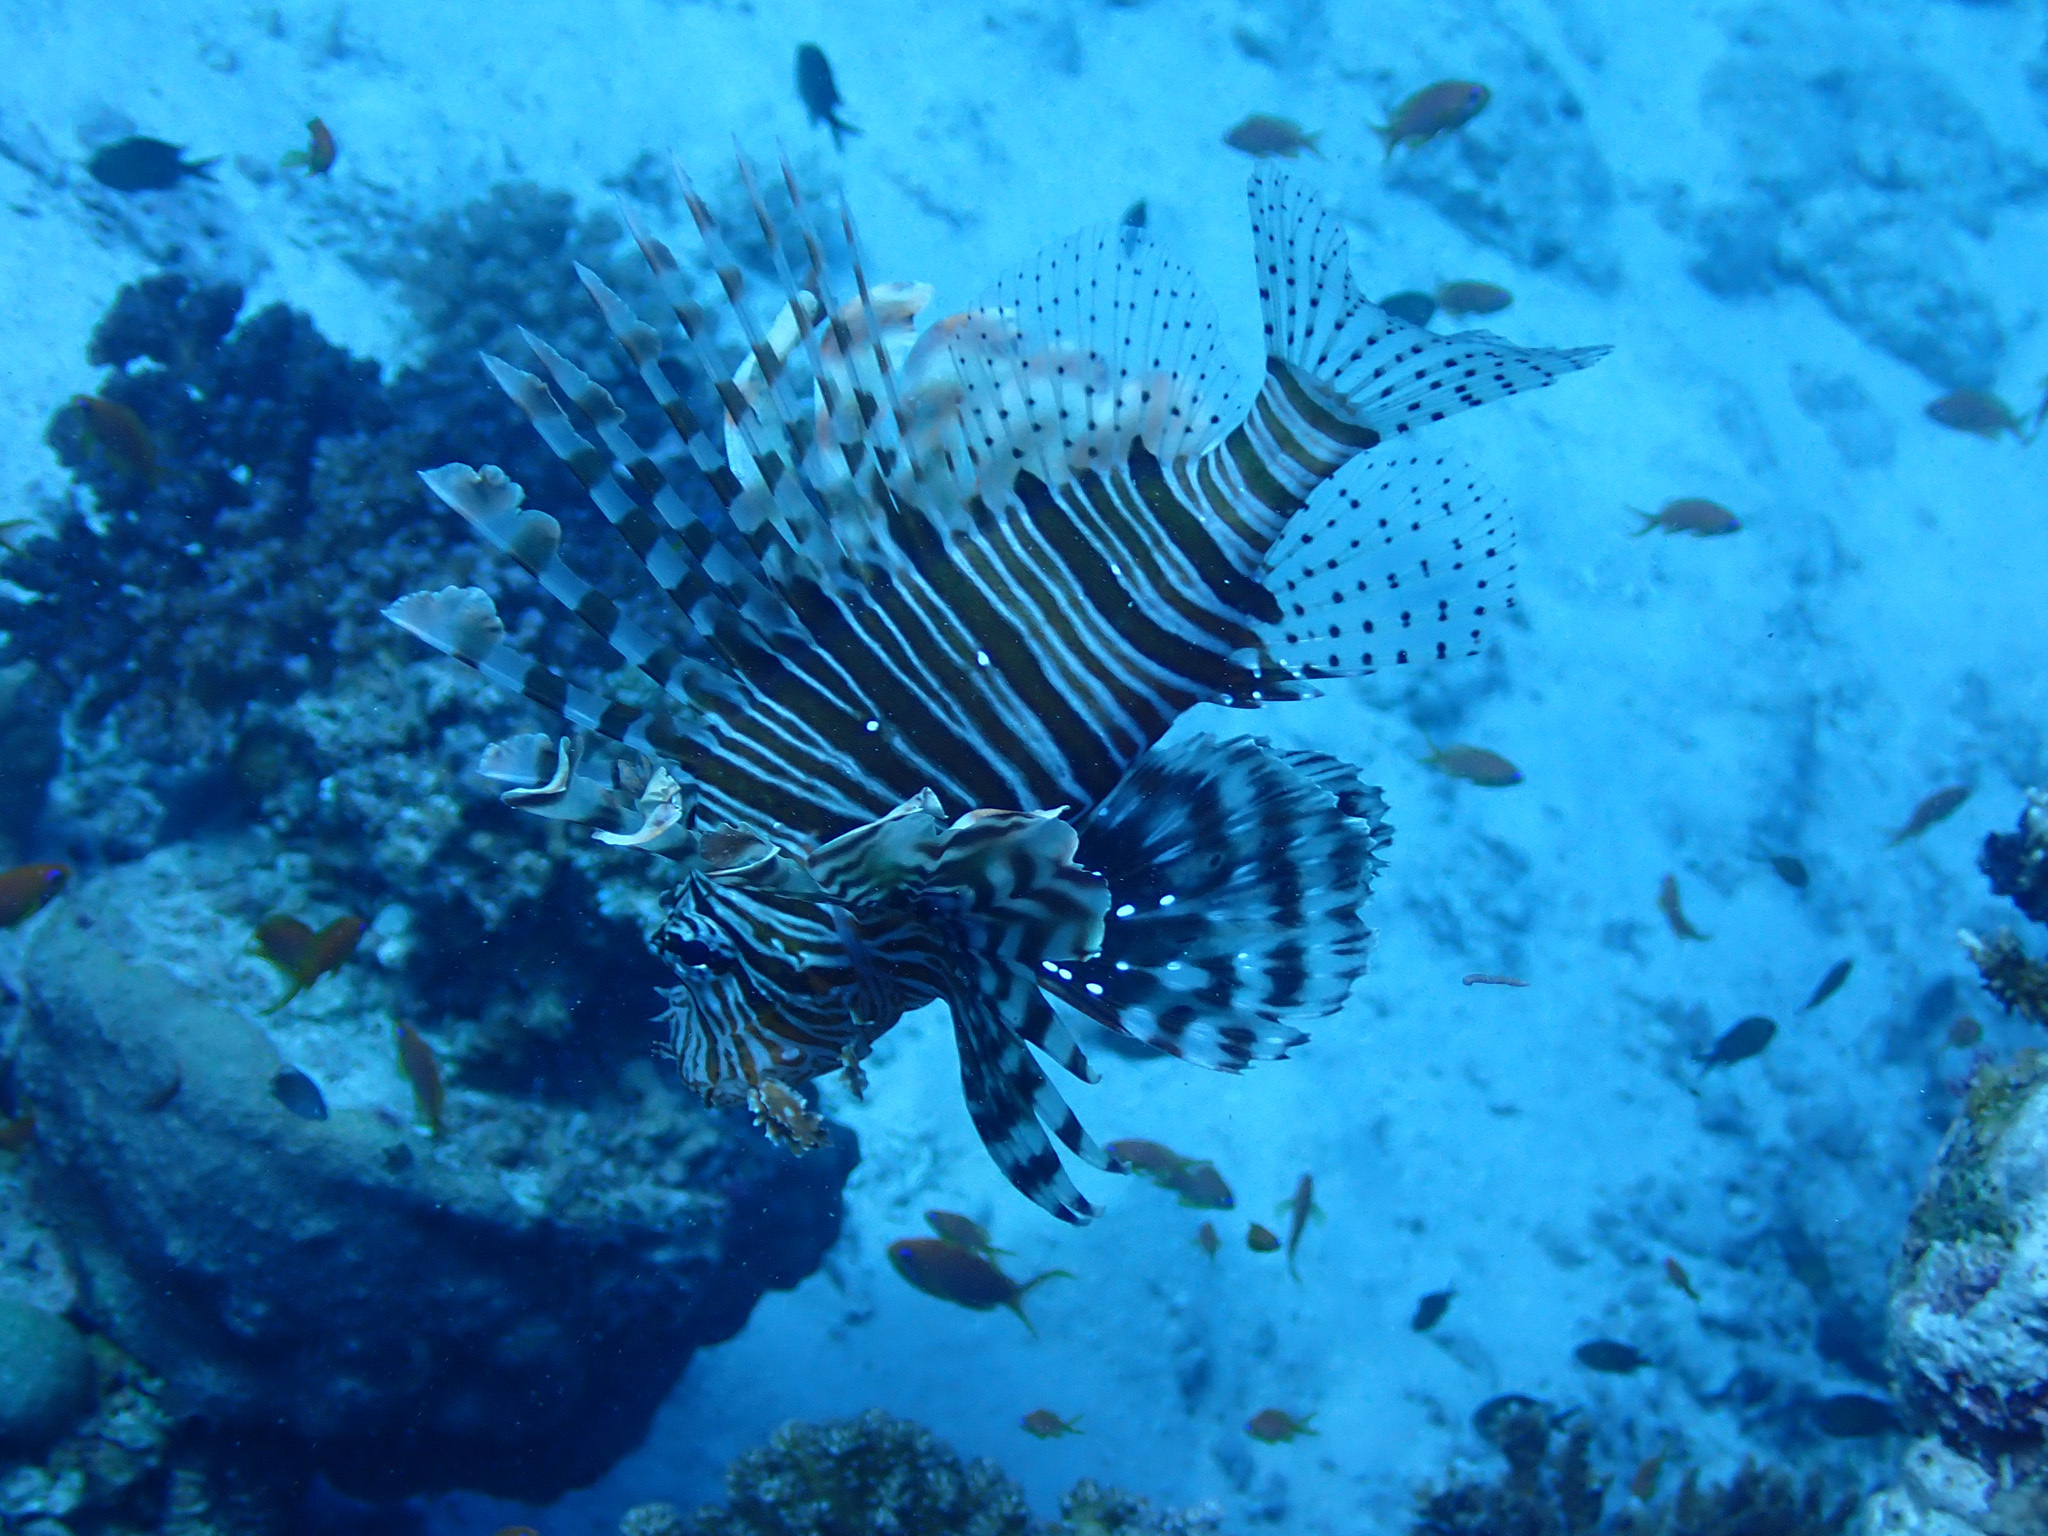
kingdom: Animalia
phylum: Chordata
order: Scorpaeniformes
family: Scorpaenidae
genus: Pterois
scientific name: Pterois miles
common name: Devil firefish
